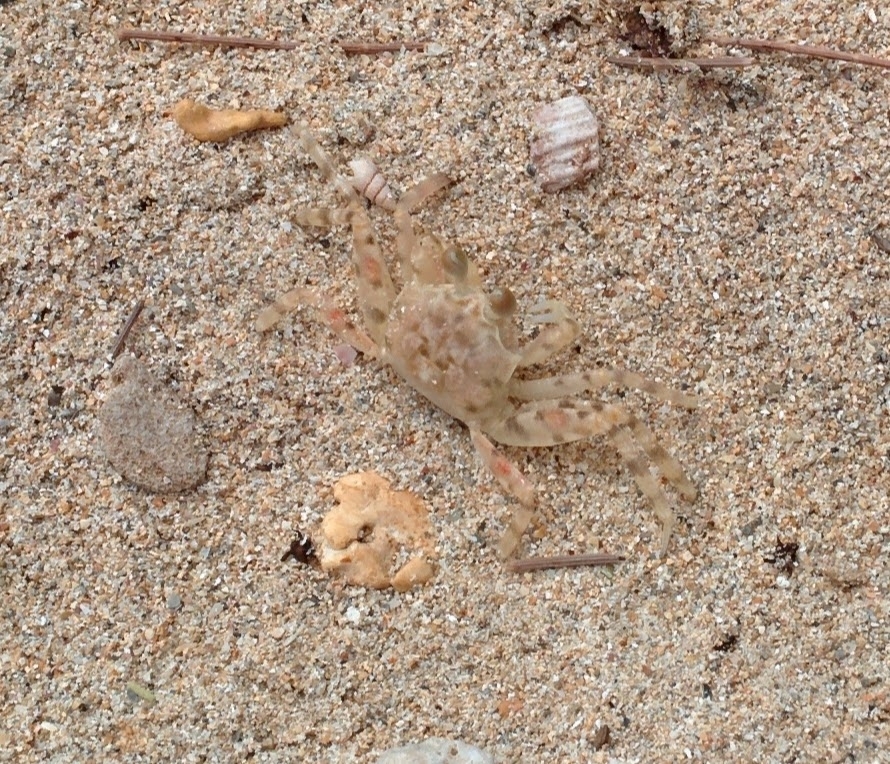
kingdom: Animalia
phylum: Arthropoda
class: Malacostraca
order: Decapoda
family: Ocypodidae
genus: Ocypode
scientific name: Ocypode pallidula
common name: Pallid ghost crab
